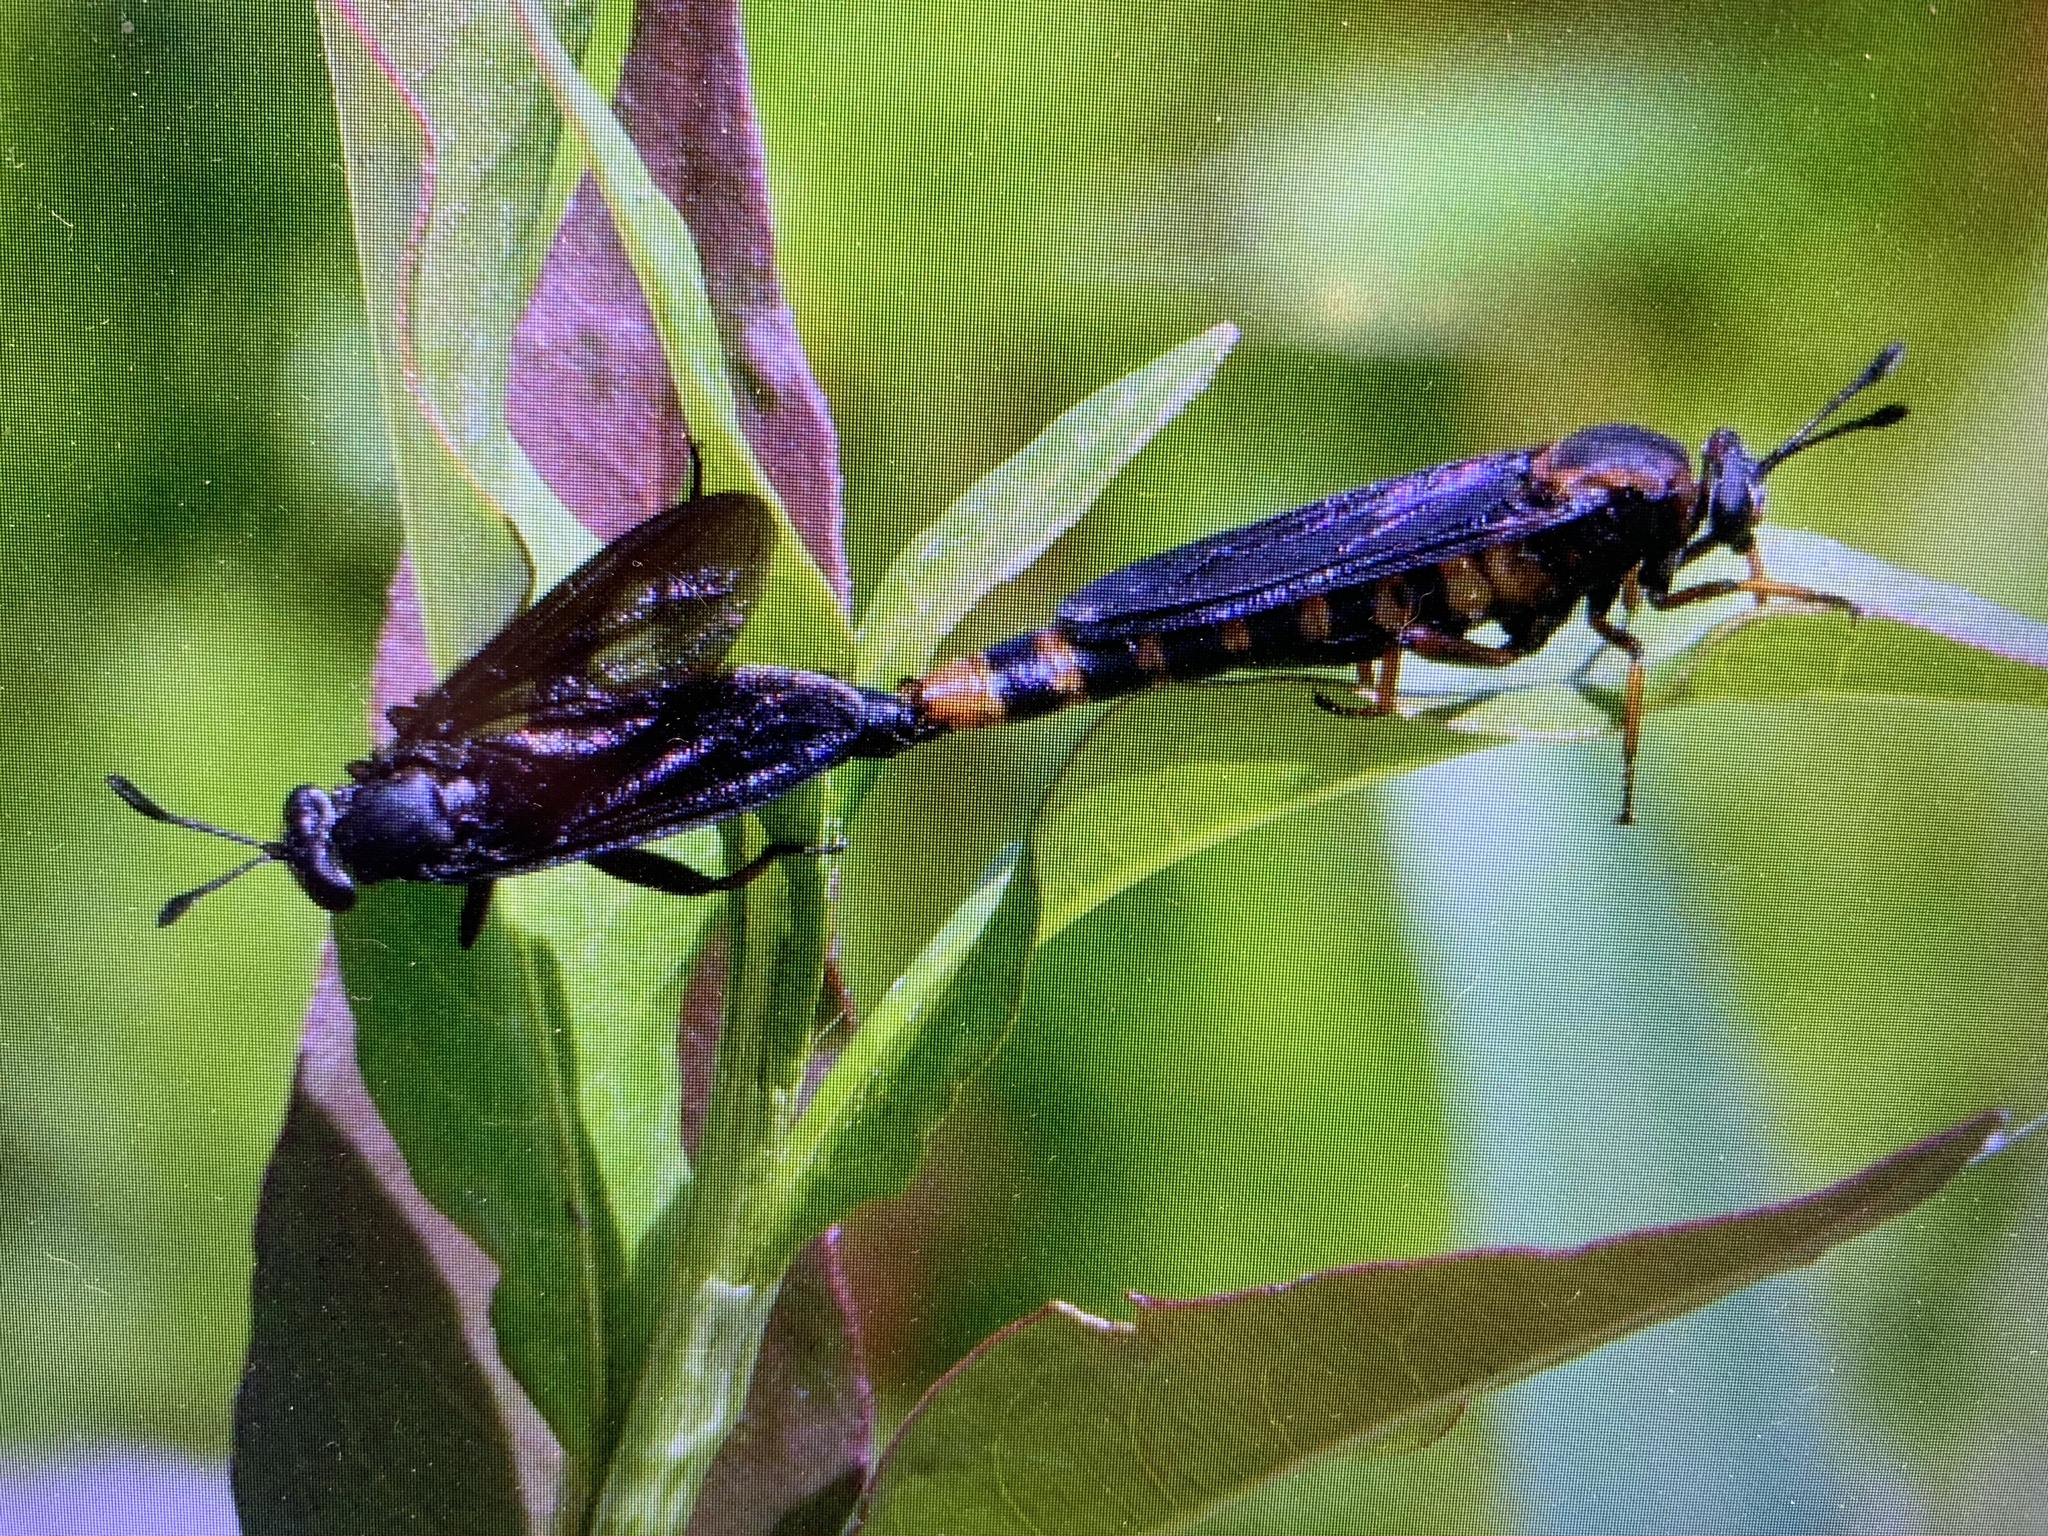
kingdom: Animalia
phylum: Arthropoda
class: Insecta
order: Diptera
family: Mydidae
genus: Phyllomydas
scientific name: Phyllomydas parvulus
